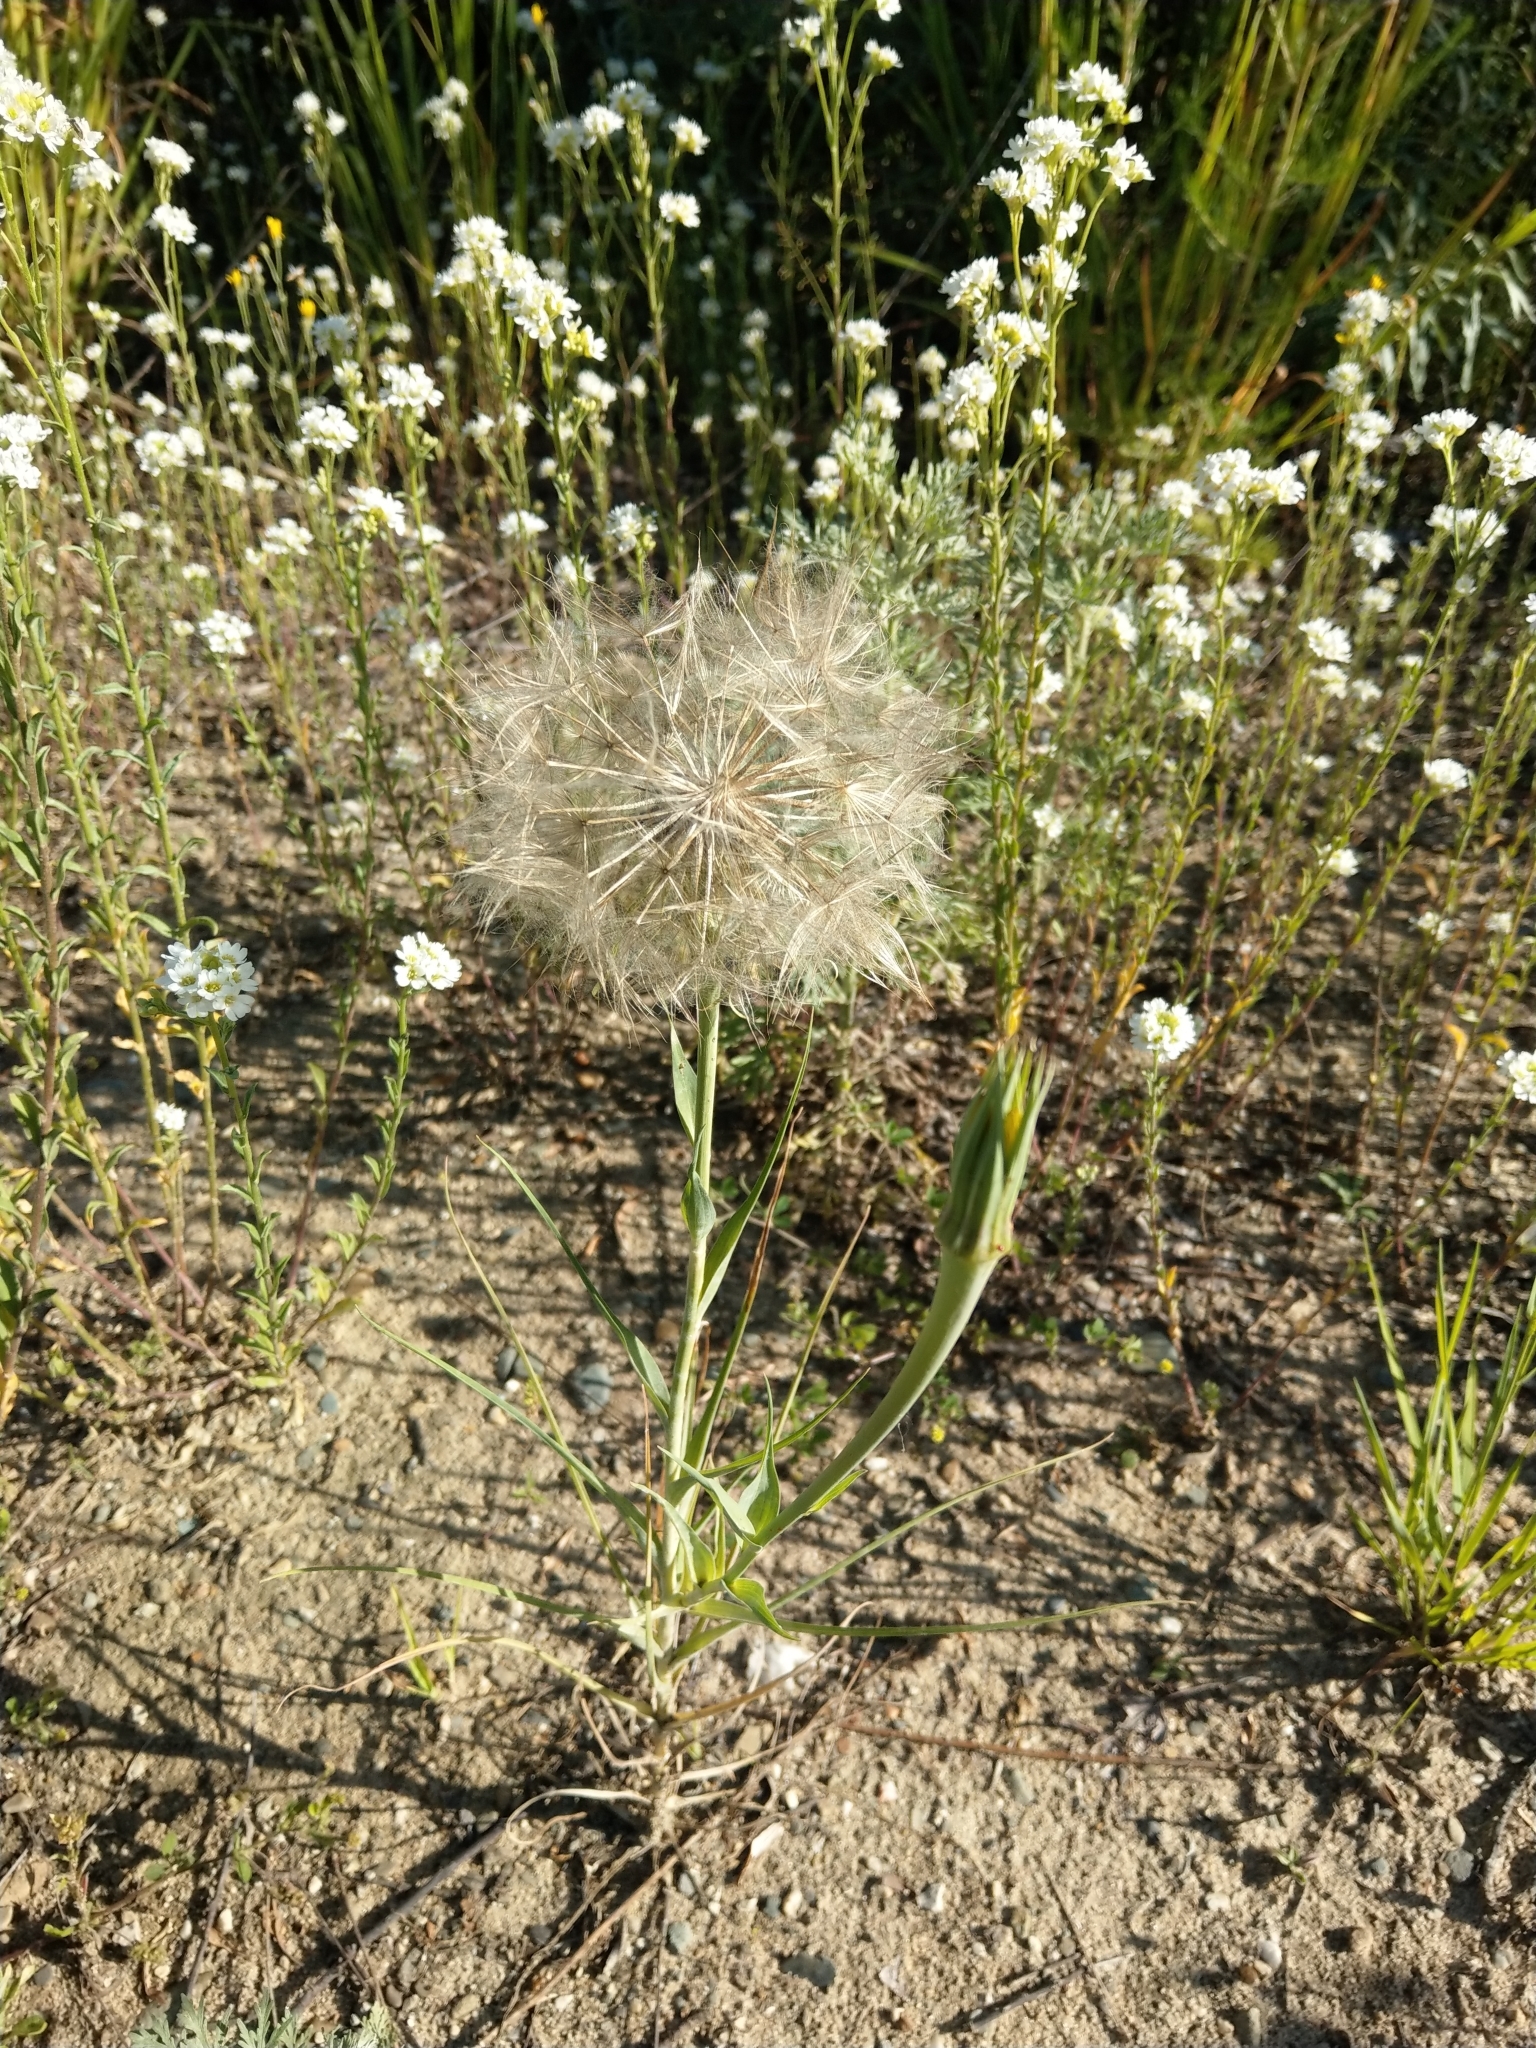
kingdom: Plantae
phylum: Tracheophyta
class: Magnoliopsida
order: Asterales
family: Asteraceae
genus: Tragopogon
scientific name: Tragopogon dubius
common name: Yellow salsify
